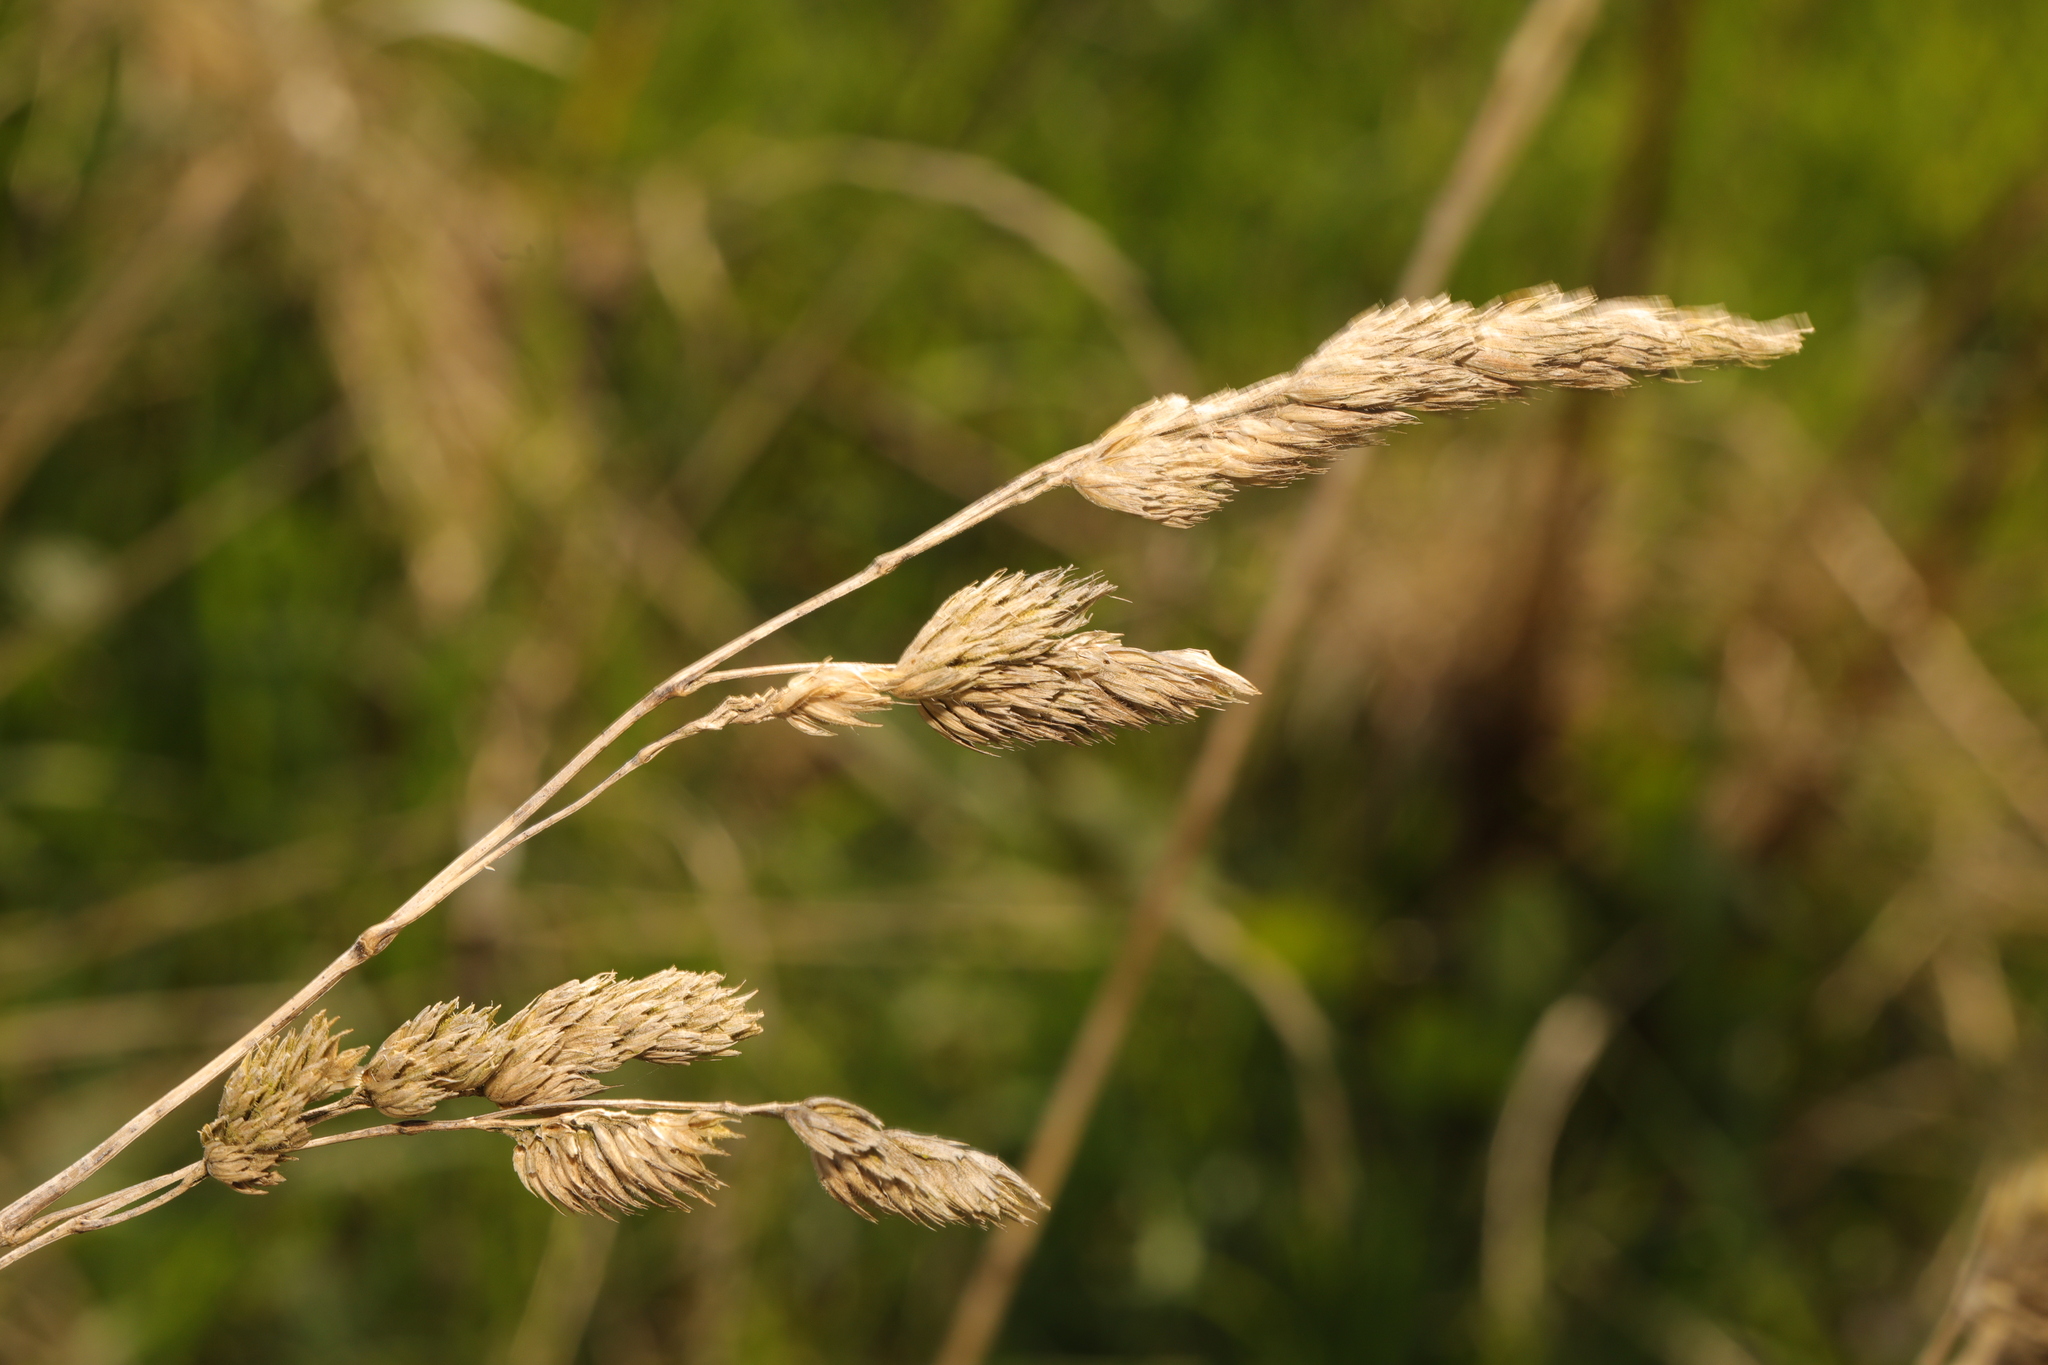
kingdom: Plantae
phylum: Tracheophyta
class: Liliopsida
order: Poales
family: Poaceae
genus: Dactylis
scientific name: Dactylis glomerata
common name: Orchardgrass
